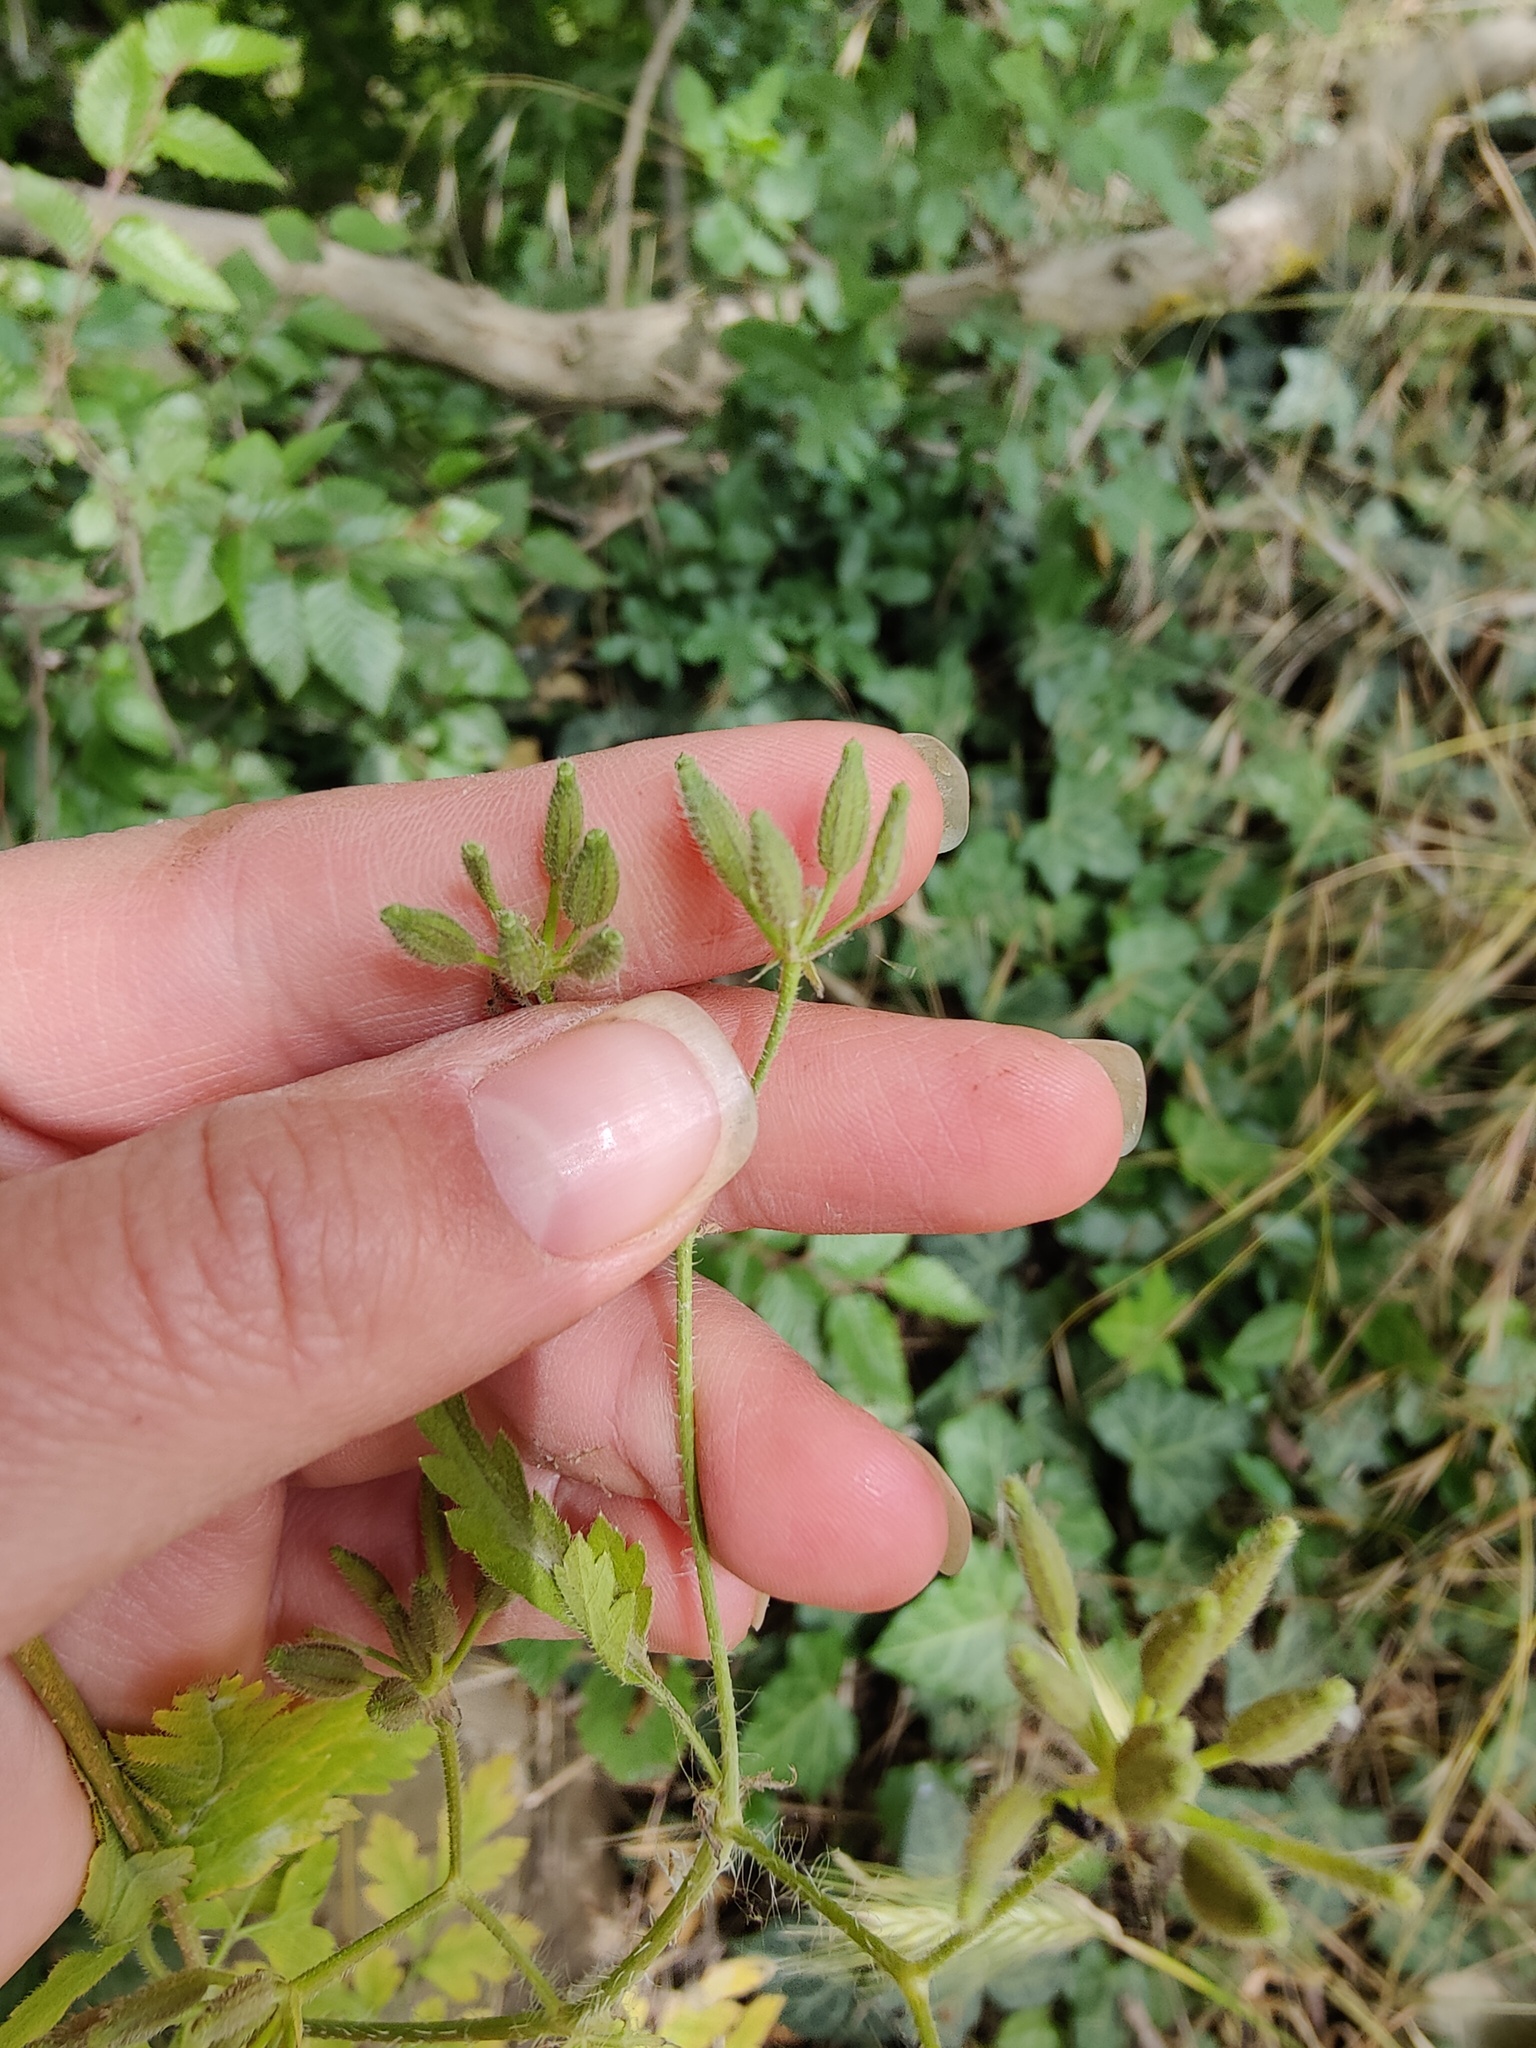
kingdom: Plantae
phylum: Tracheophyta
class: Magnoliopsida
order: Apiales
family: Apiaceae
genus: Chaerophyllum
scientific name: Chaerophyllum nodosum
